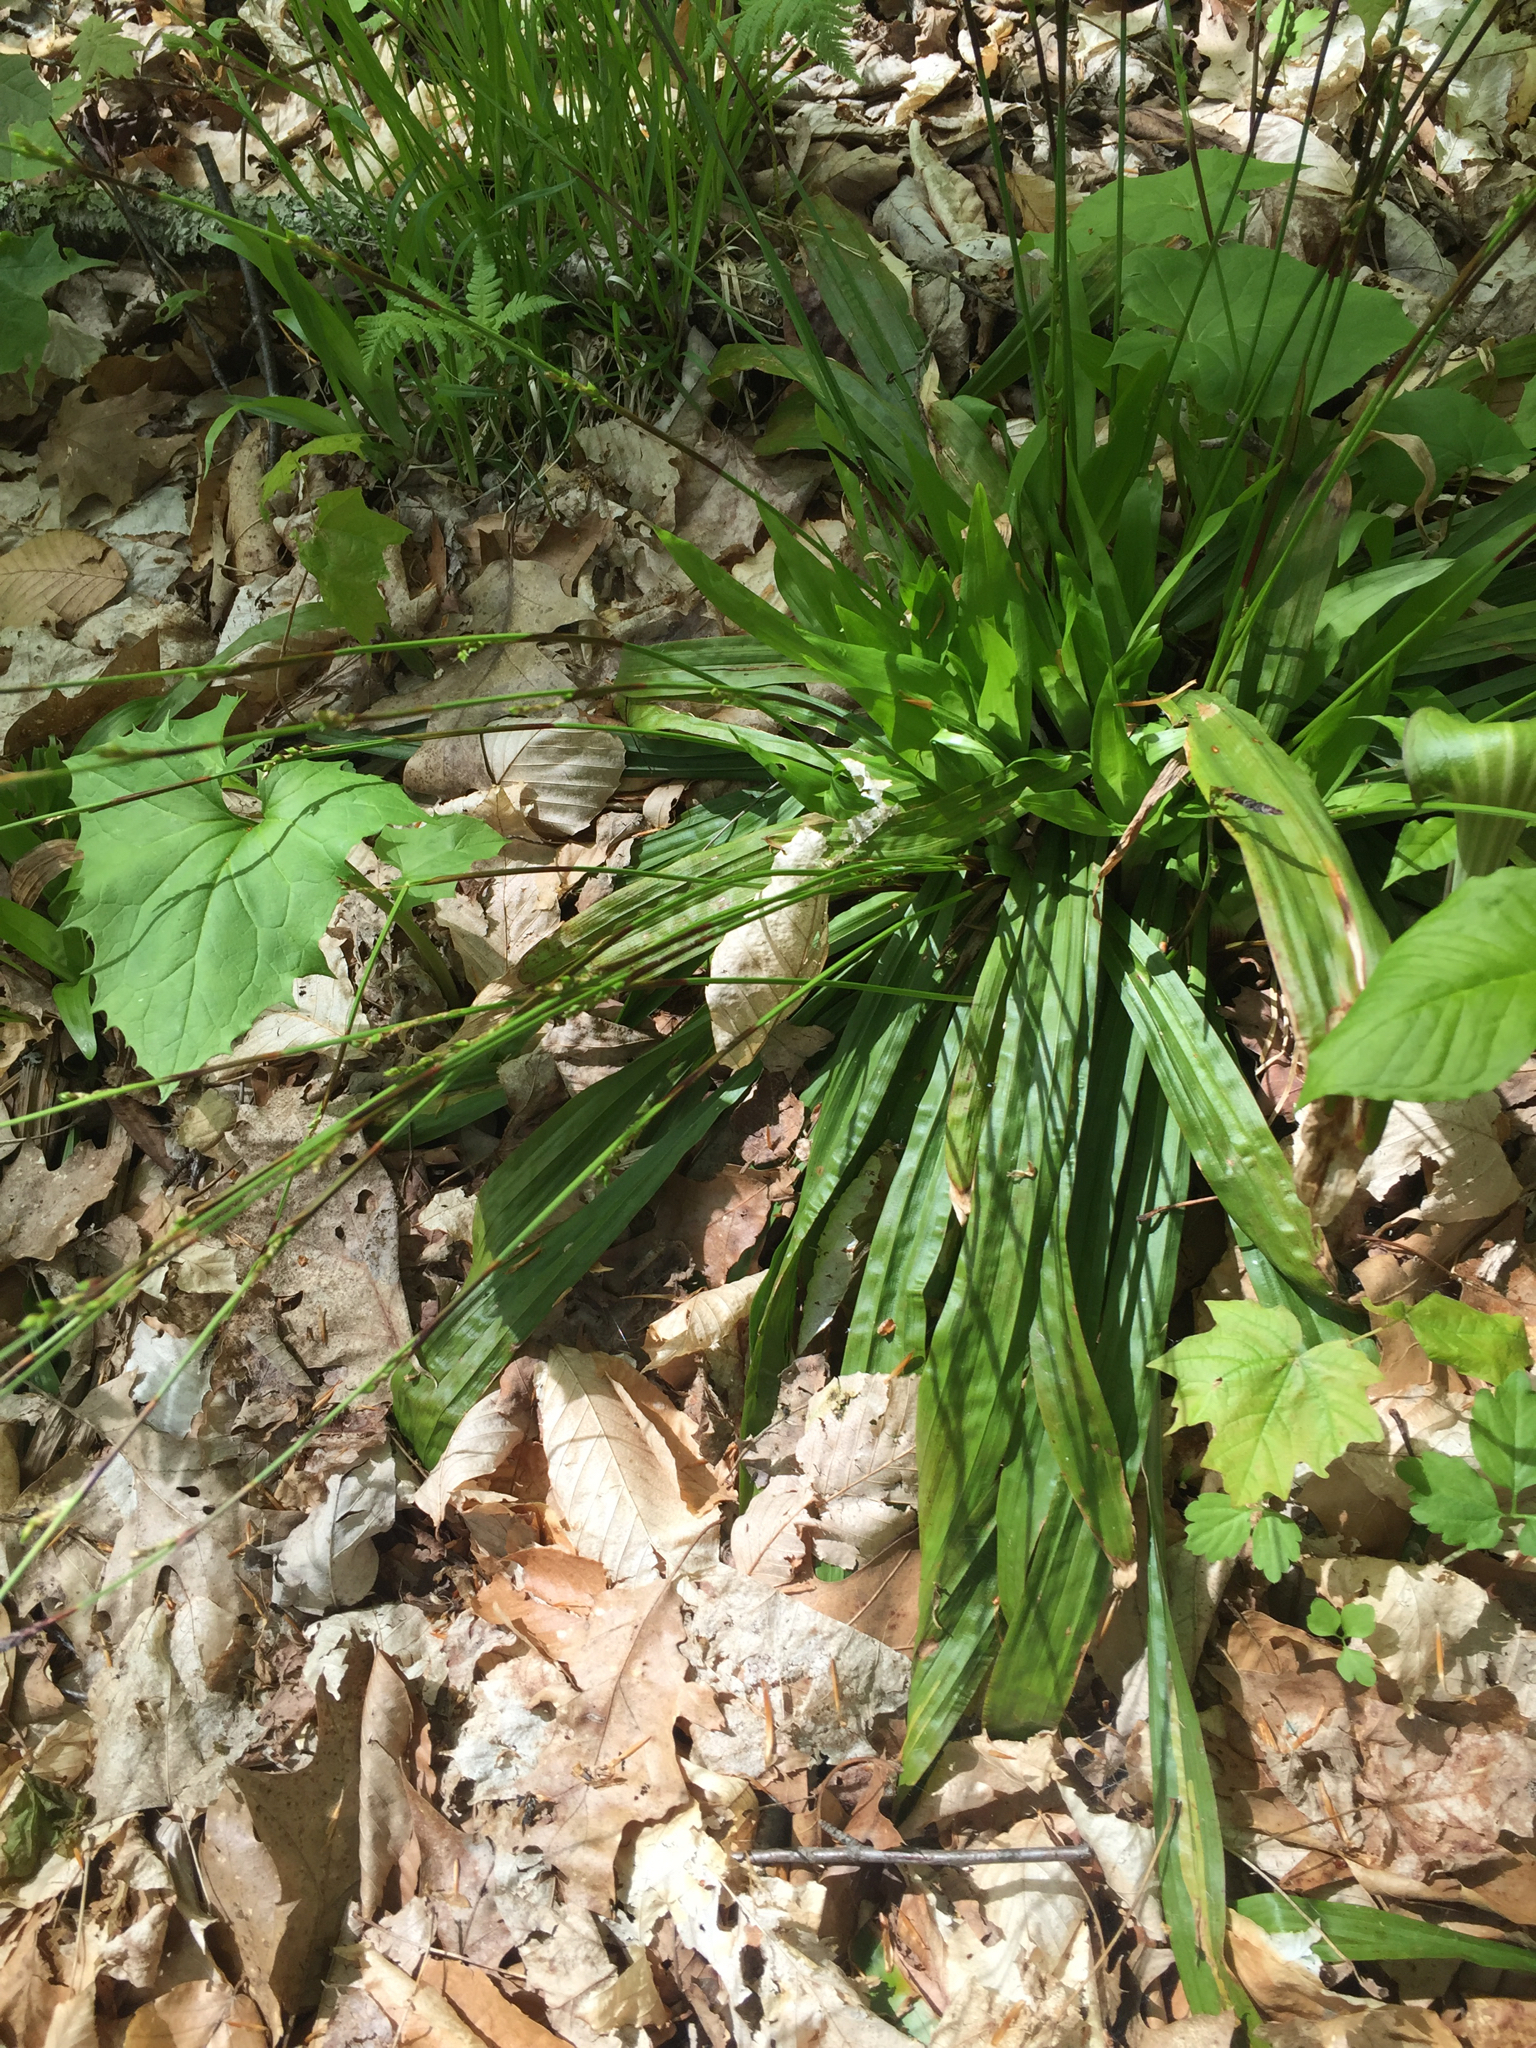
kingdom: Plantae
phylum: Tracheophyta
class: Liliopsida
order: Poales
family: Cyperaceae
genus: Carex
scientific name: Carex plantaginea
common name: Plantain-leaved sedge
